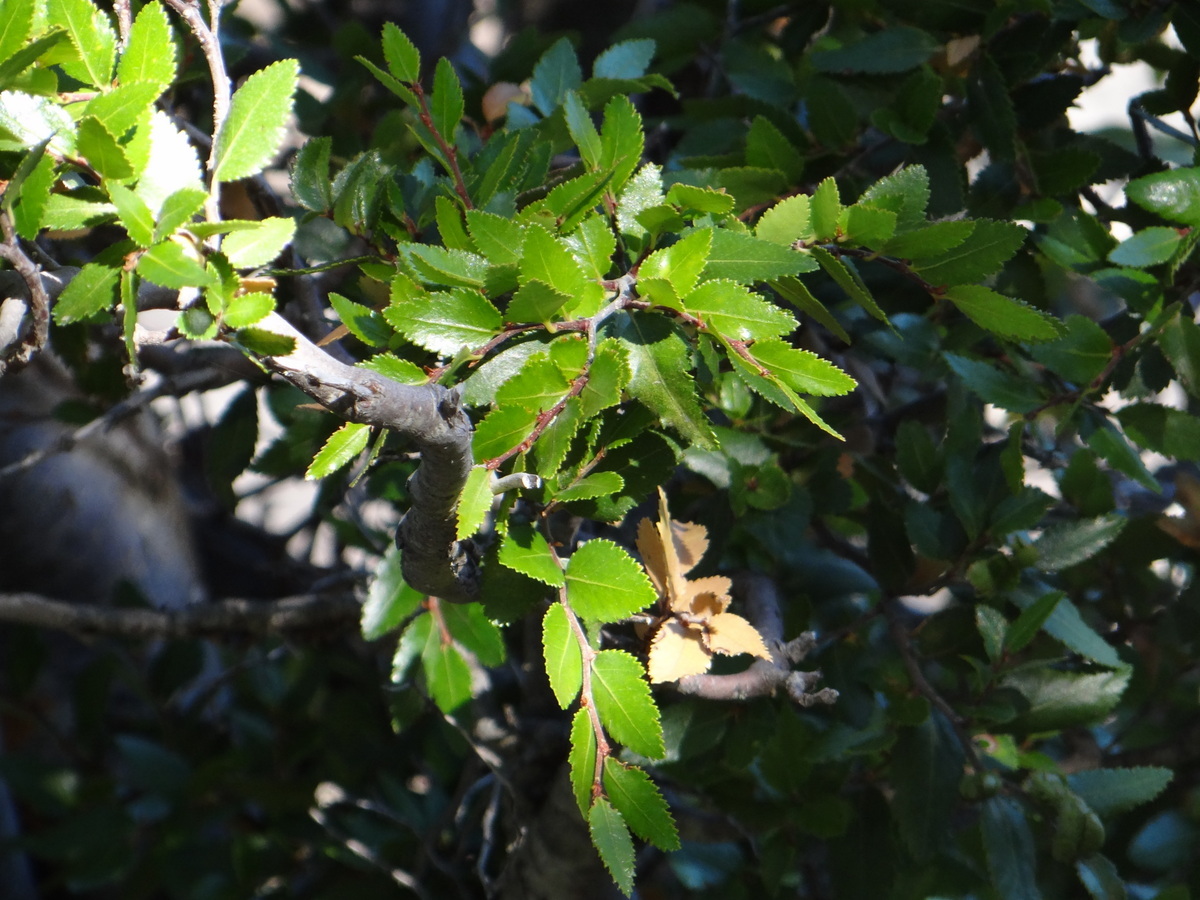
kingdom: Plantae
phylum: Tracheophyta
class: Magnoliopsida
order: Fagales
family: Nothofagaceae
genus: Nothofagus
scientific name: Nothofagus dombeyi
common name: Coigue
